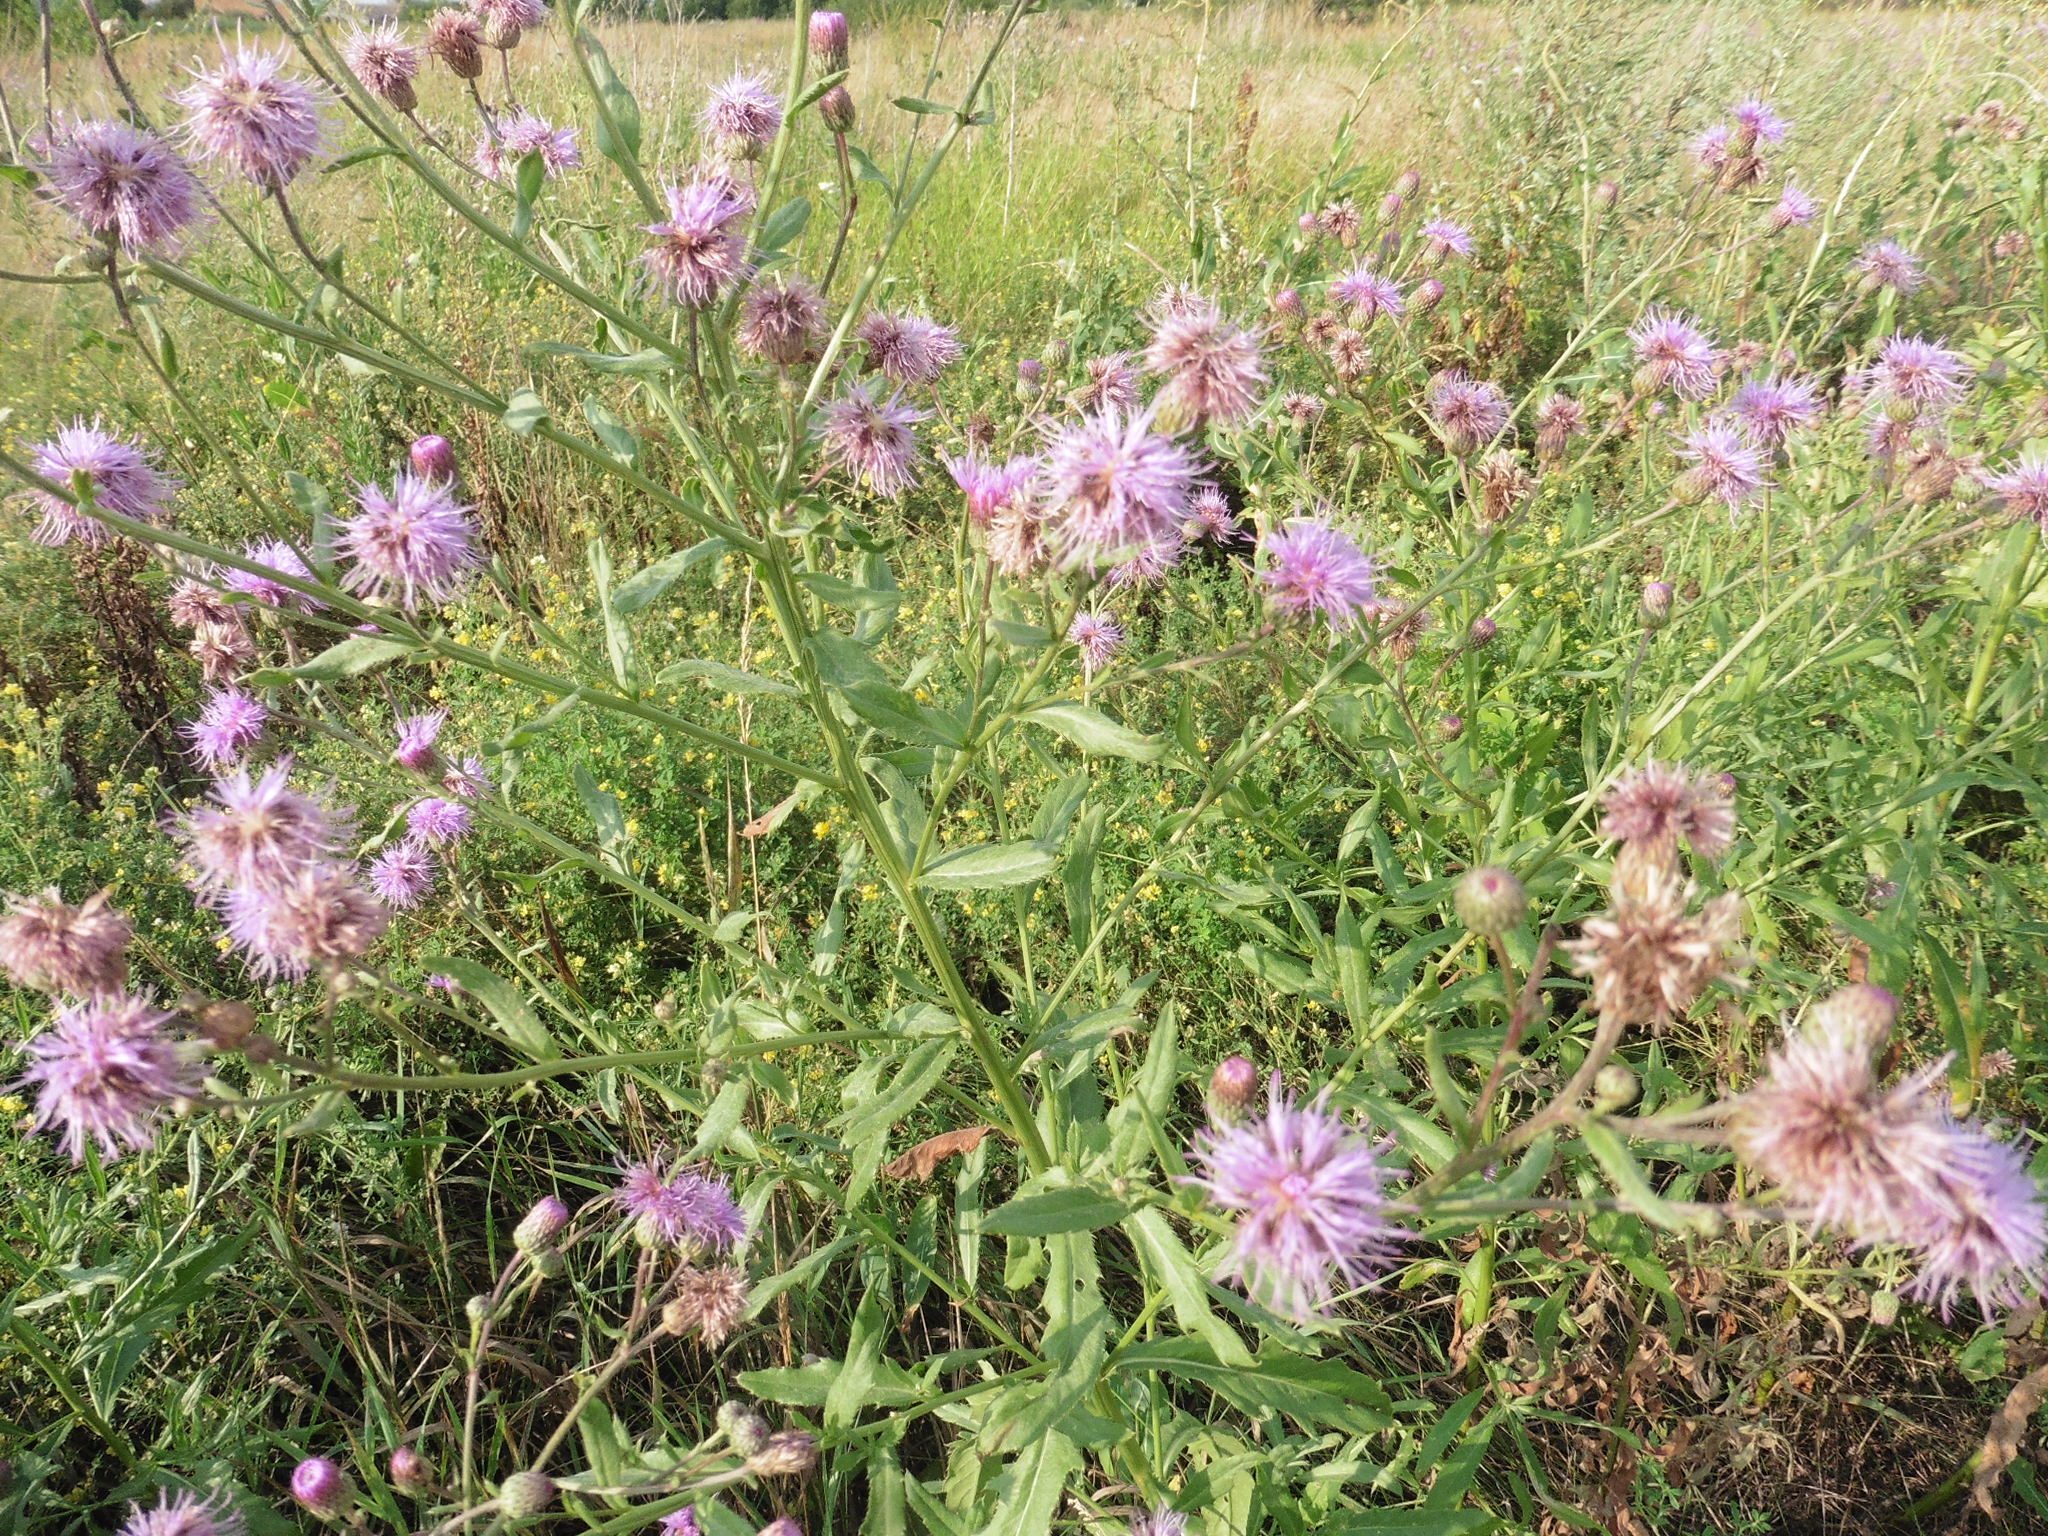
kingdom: Plantae
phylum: Tracheophyta
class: Magnoliopsida
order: Asterales
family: Asteraceae
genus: Cirsium
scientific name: Cirsium arvense
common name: Creeping thistle
